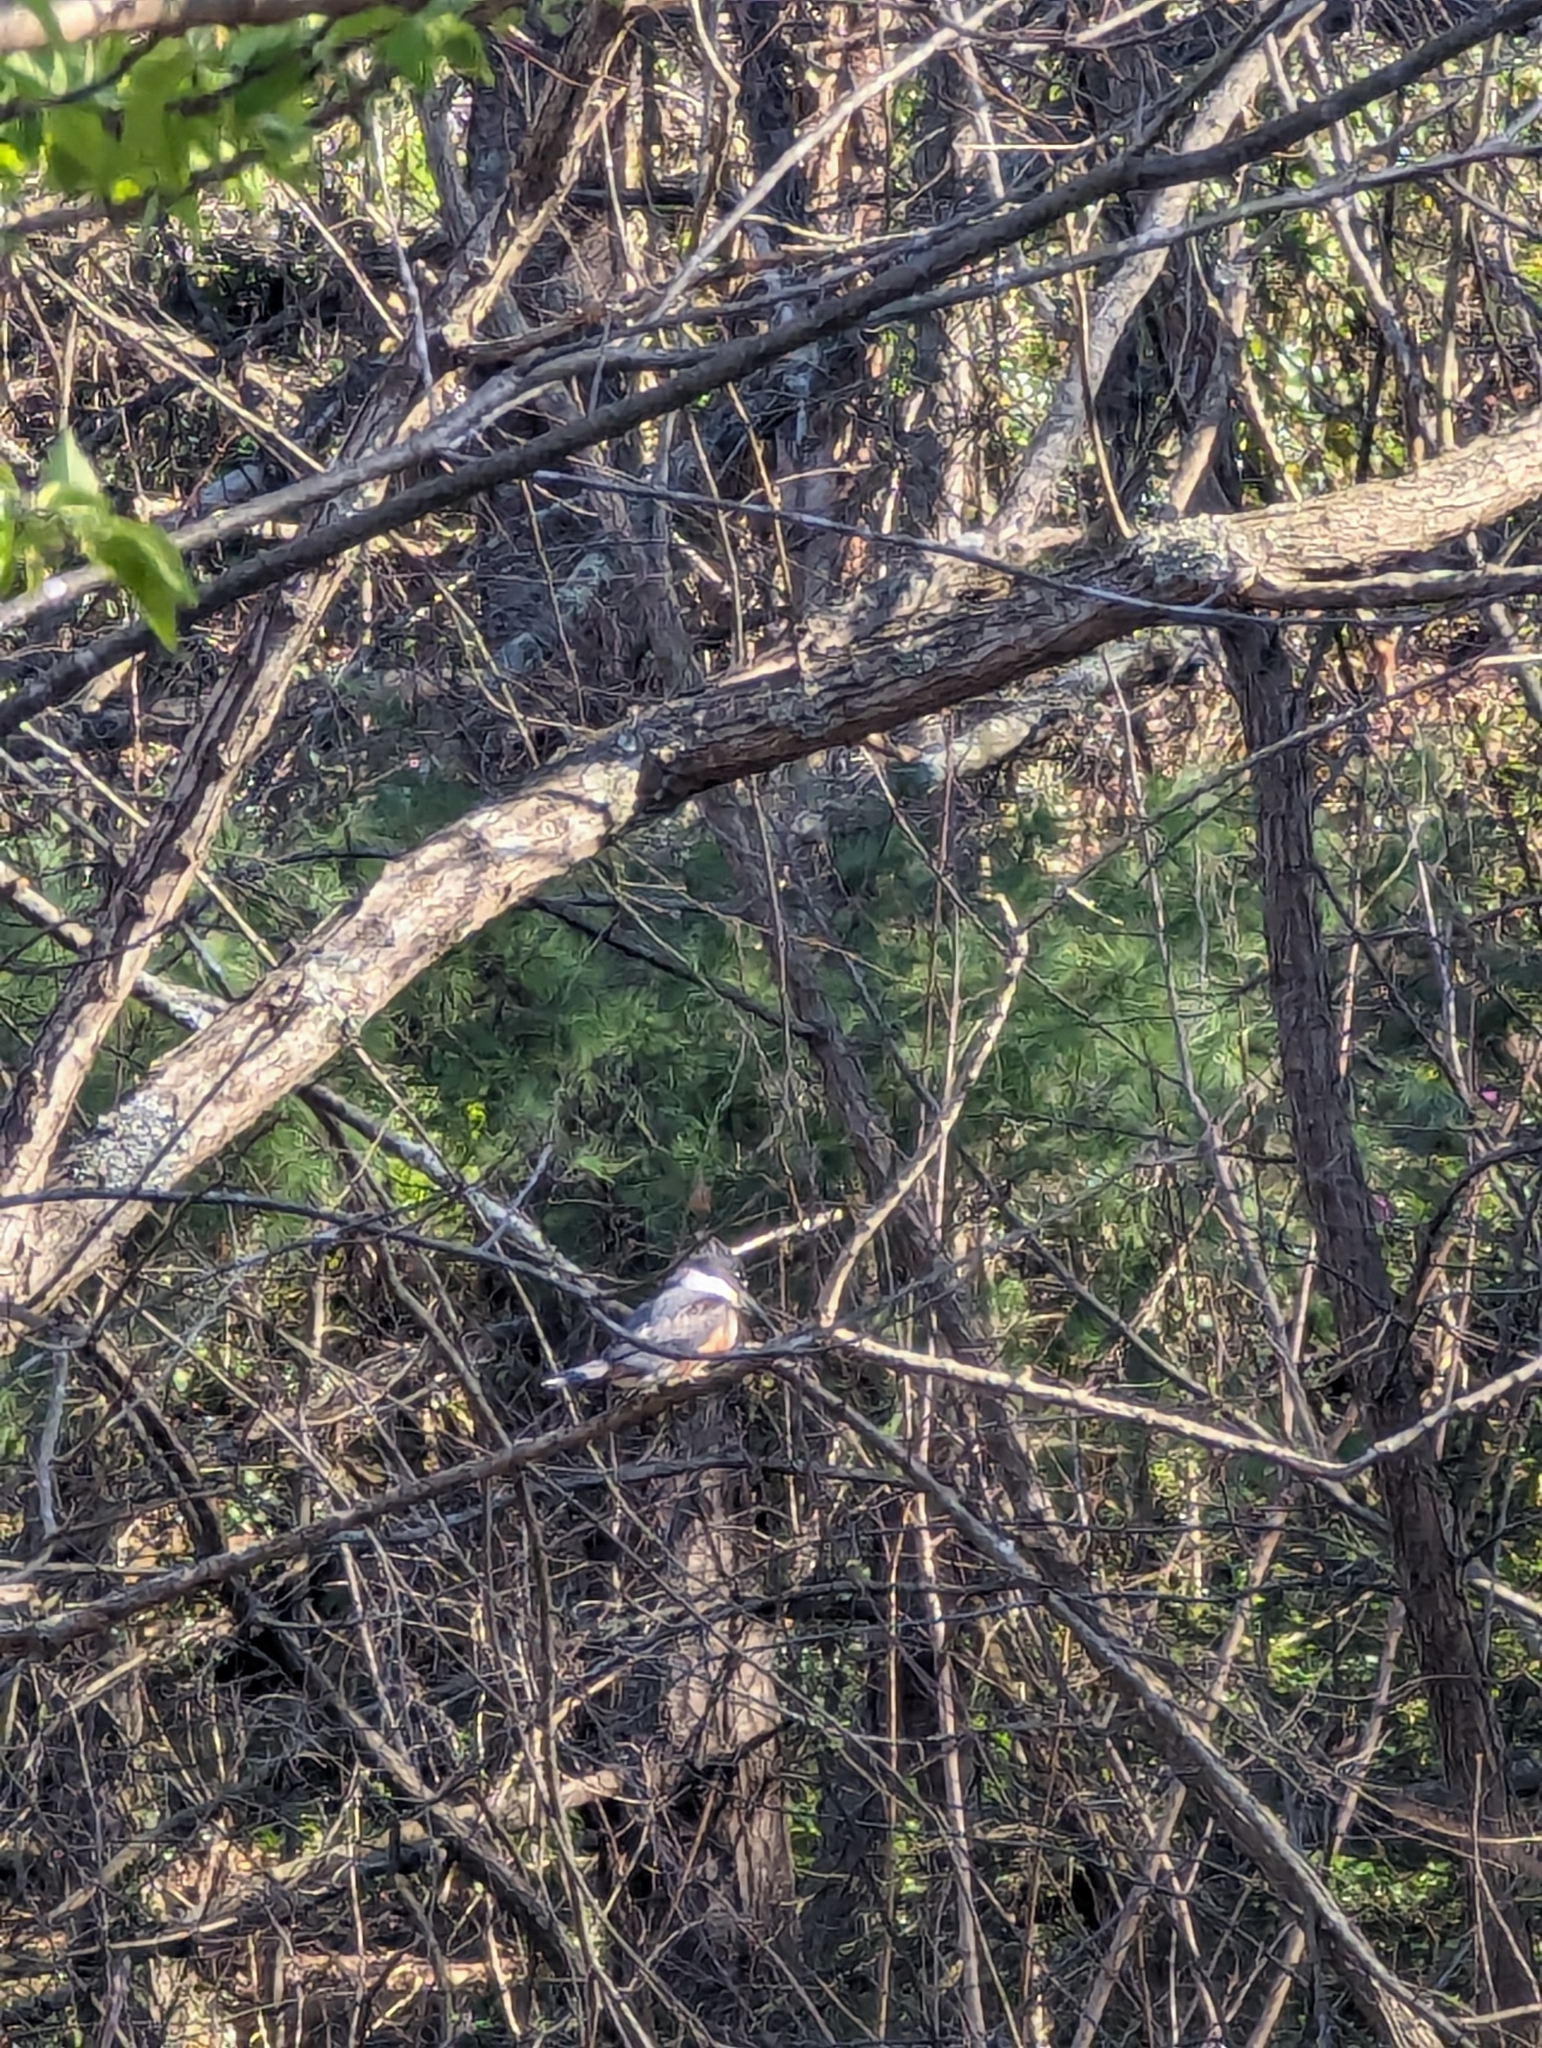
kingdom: Animalia
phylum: Chordata
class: Aves
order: Coraciiformes
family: Alcedinidae
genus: Megaceryle
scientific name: Megaceryle alcyon
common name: Belted kingfisher
